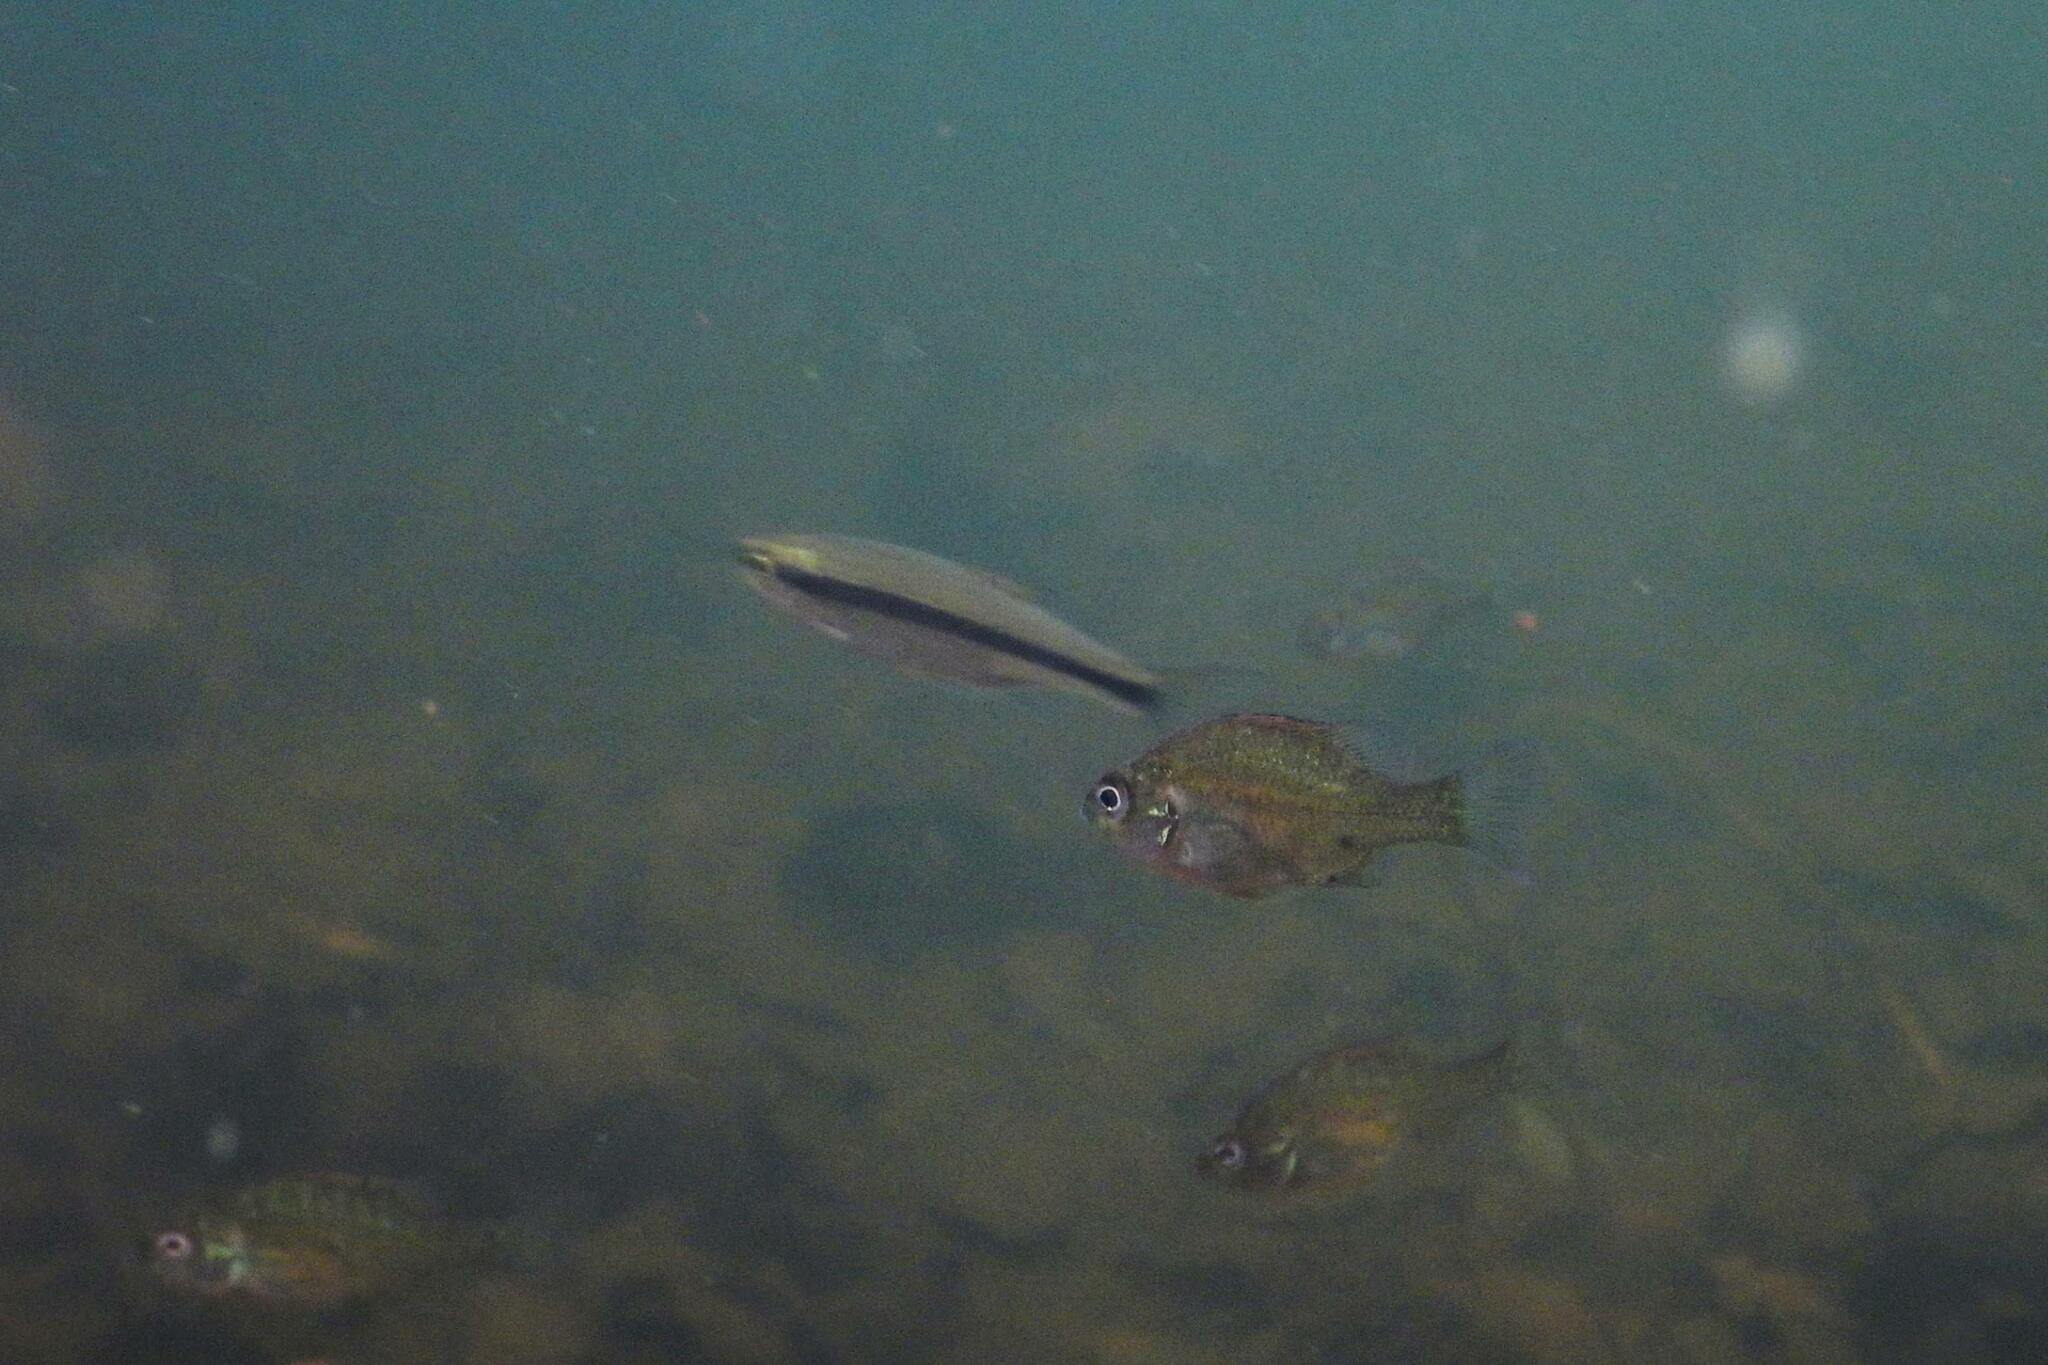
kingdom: Animalia
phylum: Chordata
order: Cypriniformes
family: Cyprinidae
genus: Notemigonus
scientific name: Notemigonus crysoleucas
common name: Golden shiner
